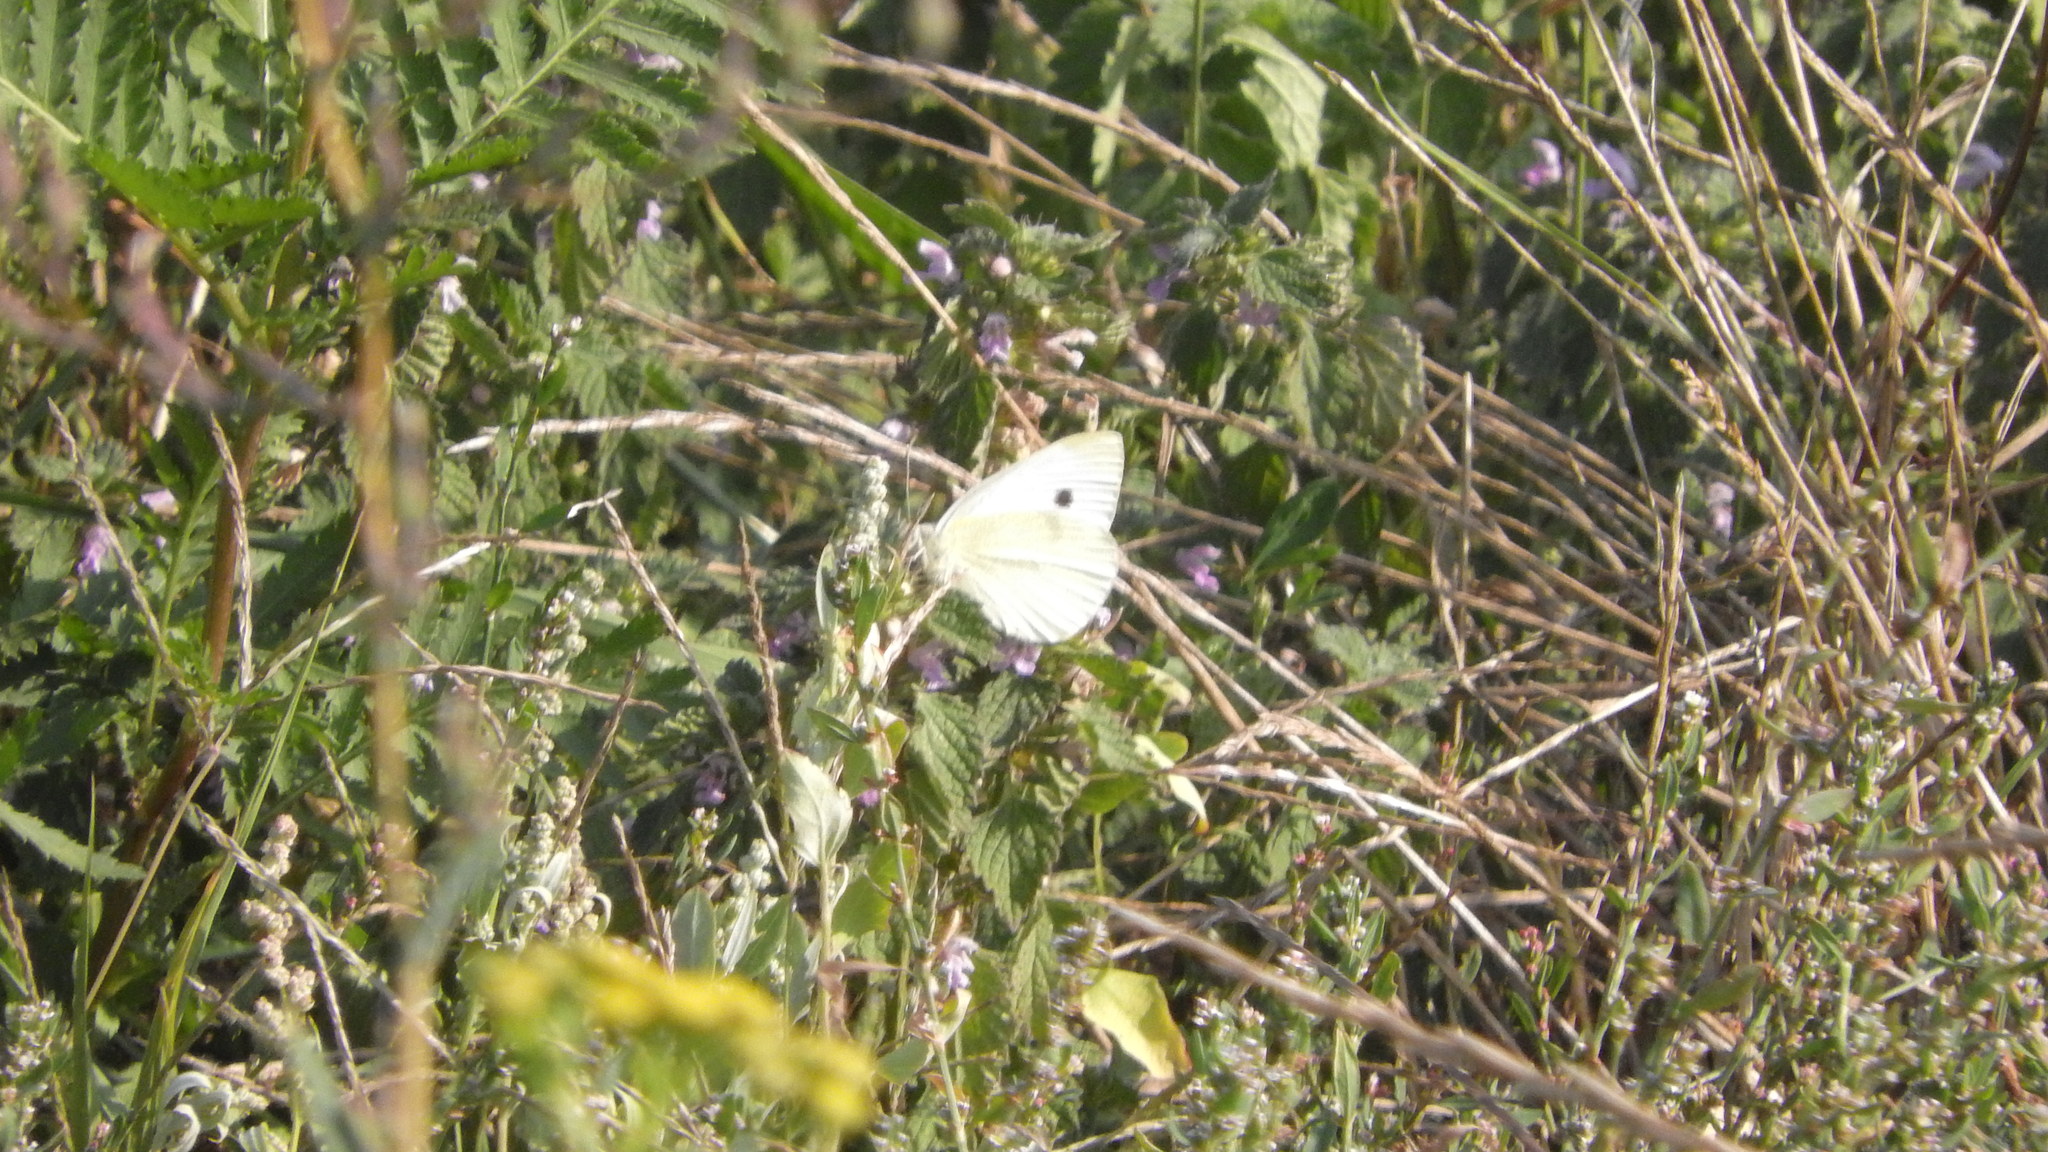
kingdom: Animalia
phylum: Arthropoda
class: Insecta
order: Lepidoptera
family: Pieridae
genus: Pieris
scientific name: Pieris rapae
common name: Small white
